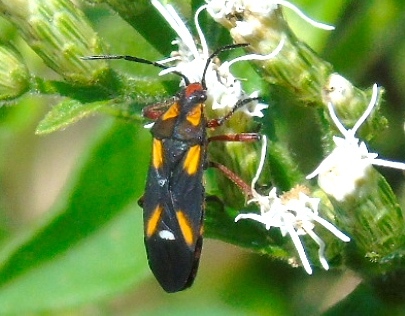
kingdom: Animalia
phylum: Arthropoda
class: Insecta
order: Hemiptera
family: Lygaeidae
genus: Oncopeltus
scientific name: Oncopeltus sexmaculatus
